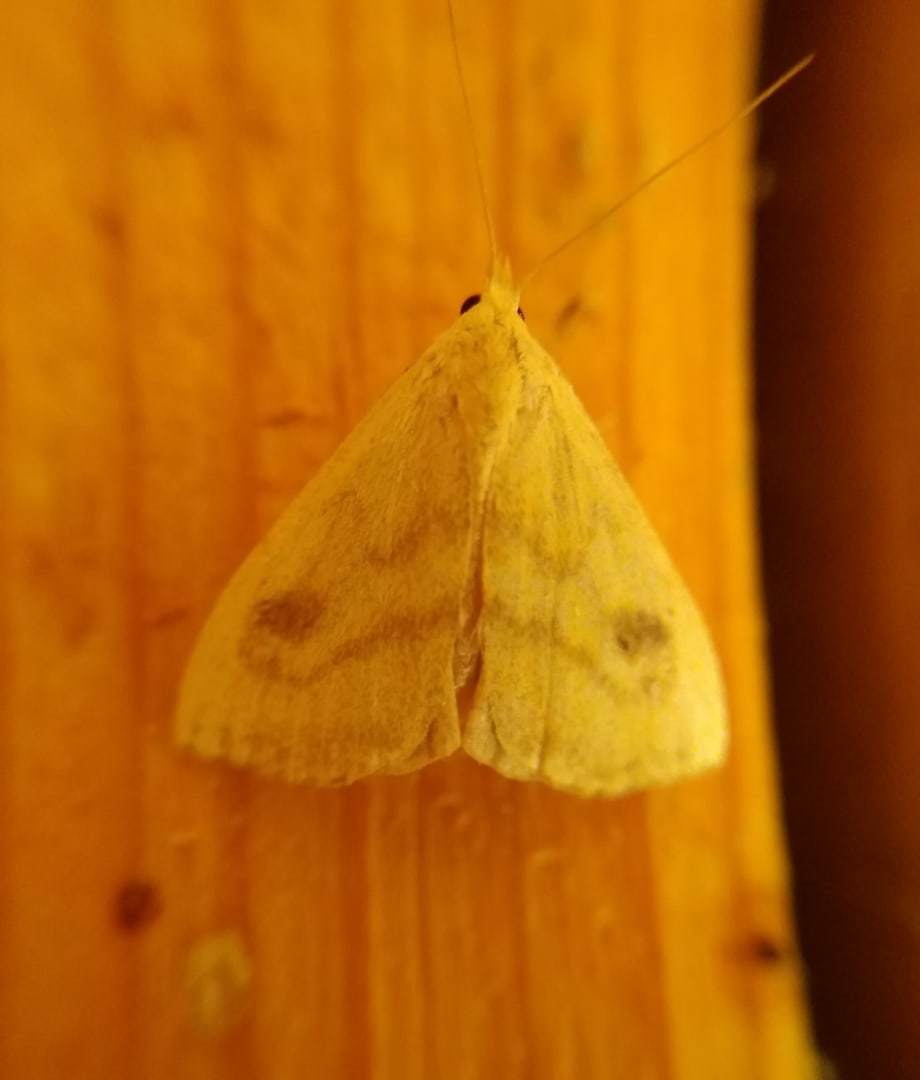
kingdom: Animalia
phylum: Arthropoda
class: Insecta
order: Lepidoptera
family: Erebidae
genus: Rivula
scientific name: Rivula sericealis
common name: Straw dot
